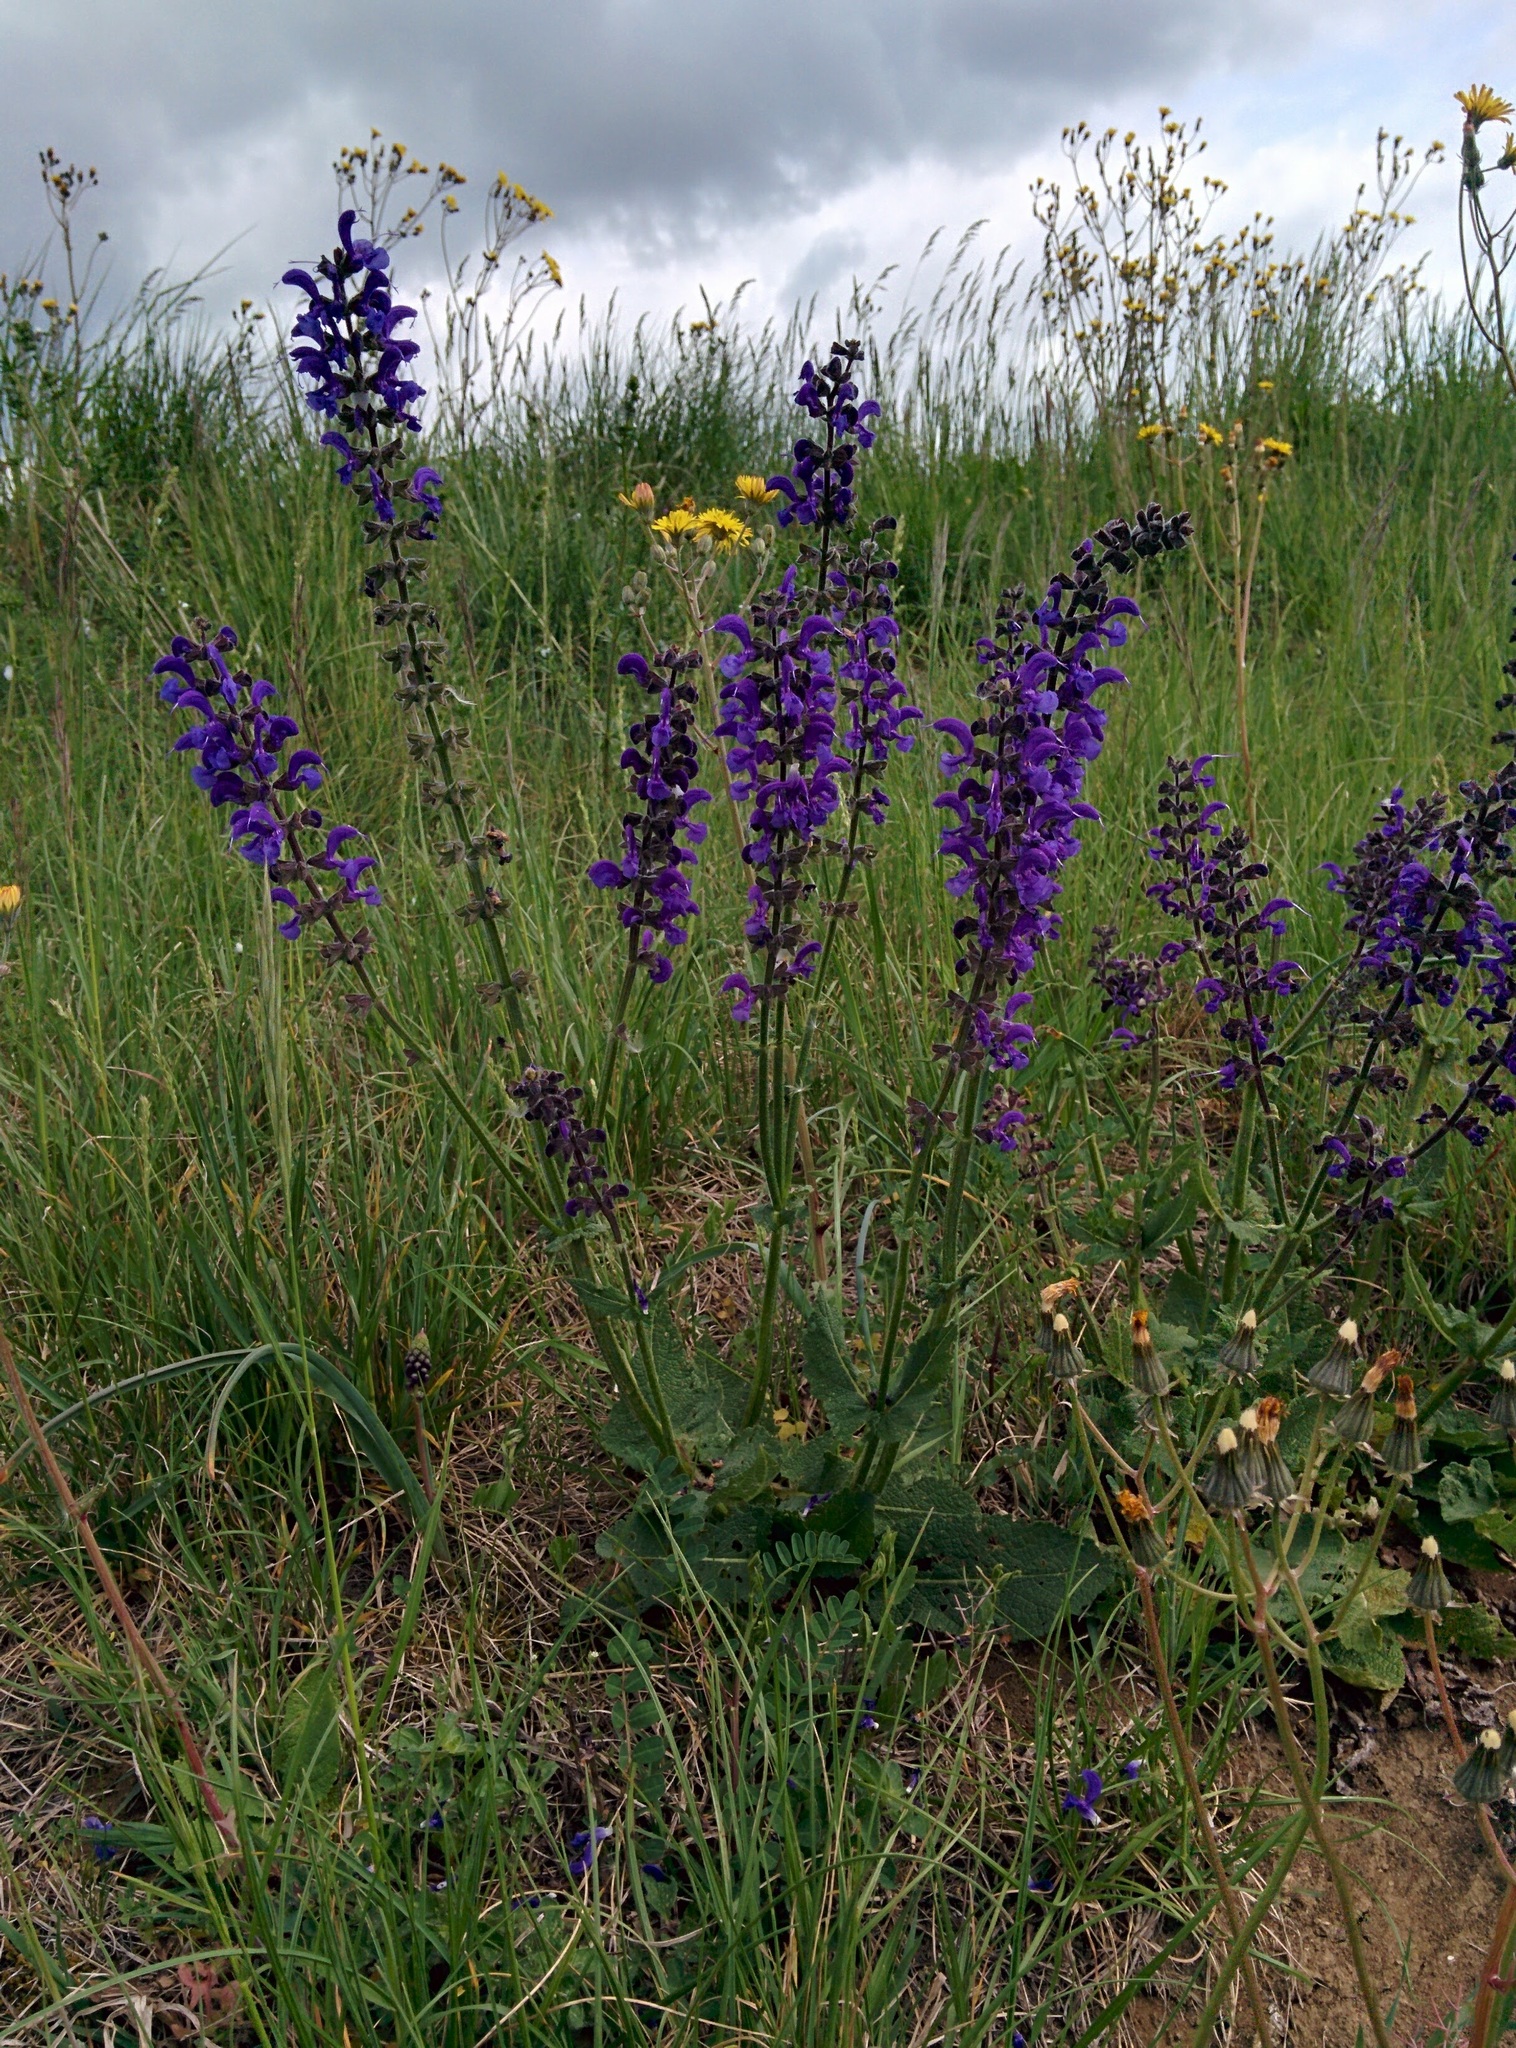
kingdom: Plantae
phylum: Tracheophyta
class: Magnoliopsida
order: Lamiales
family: Lamiaceae
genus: Salvia
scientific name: Salvia pratensis
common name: Meadow sage
